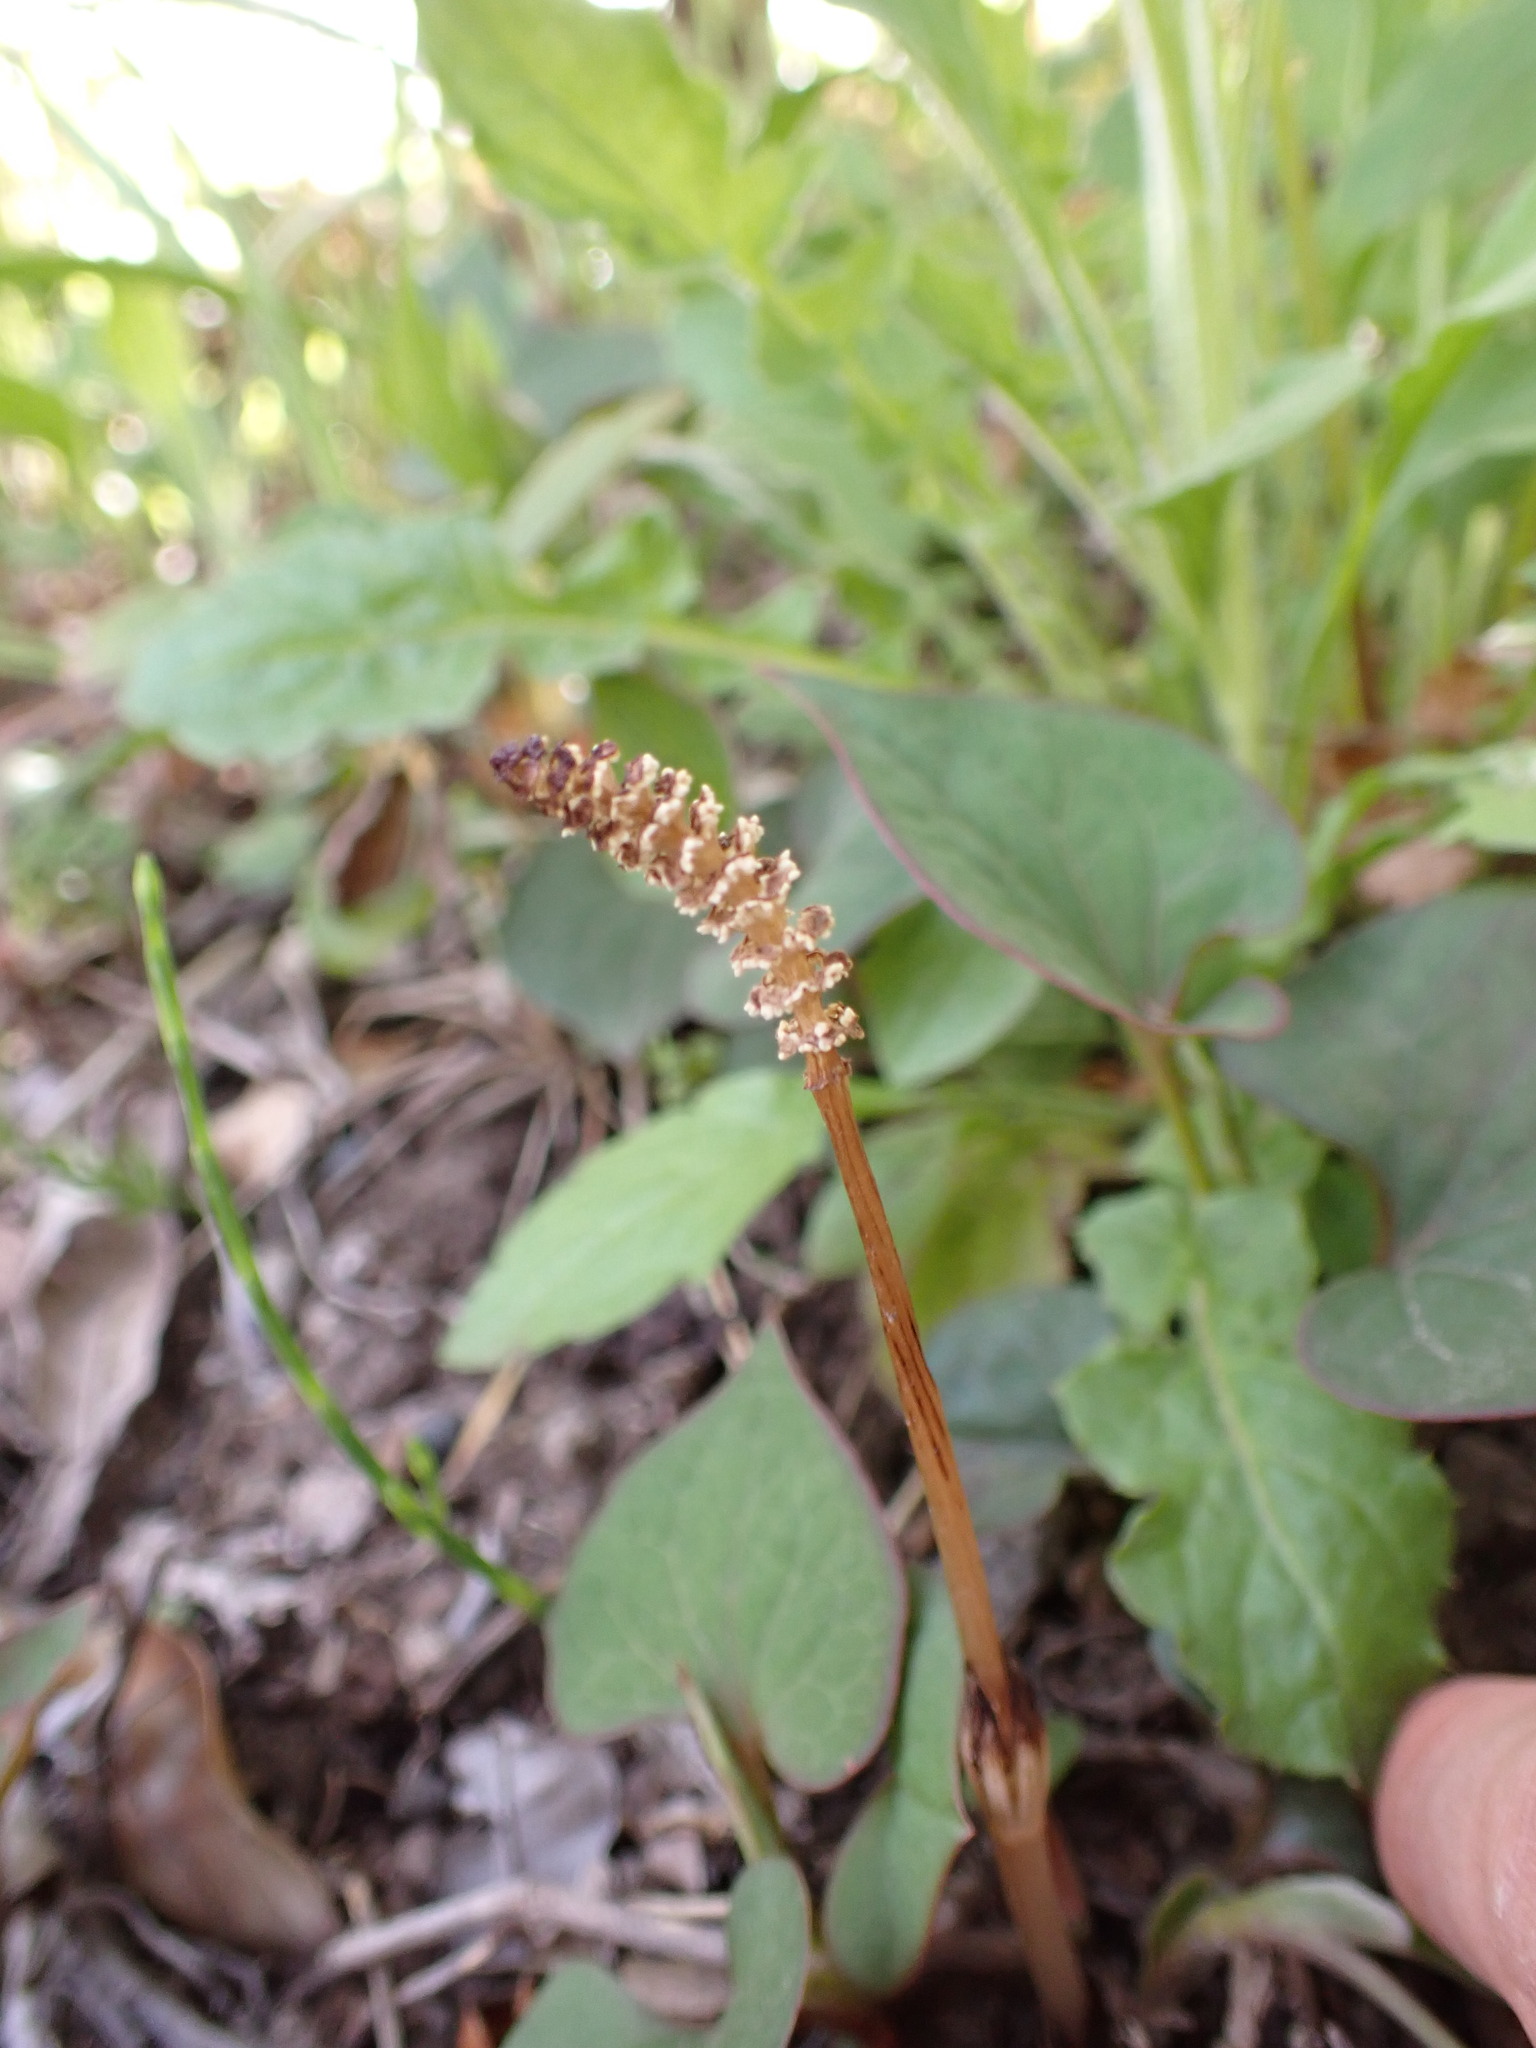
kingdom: Plantae
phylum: Tracheophyta
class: Polypodiopsida
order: Equisetales
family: Equisetaceae
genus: Equisetum
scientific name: Equisetum arvense
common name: Field horsetail
